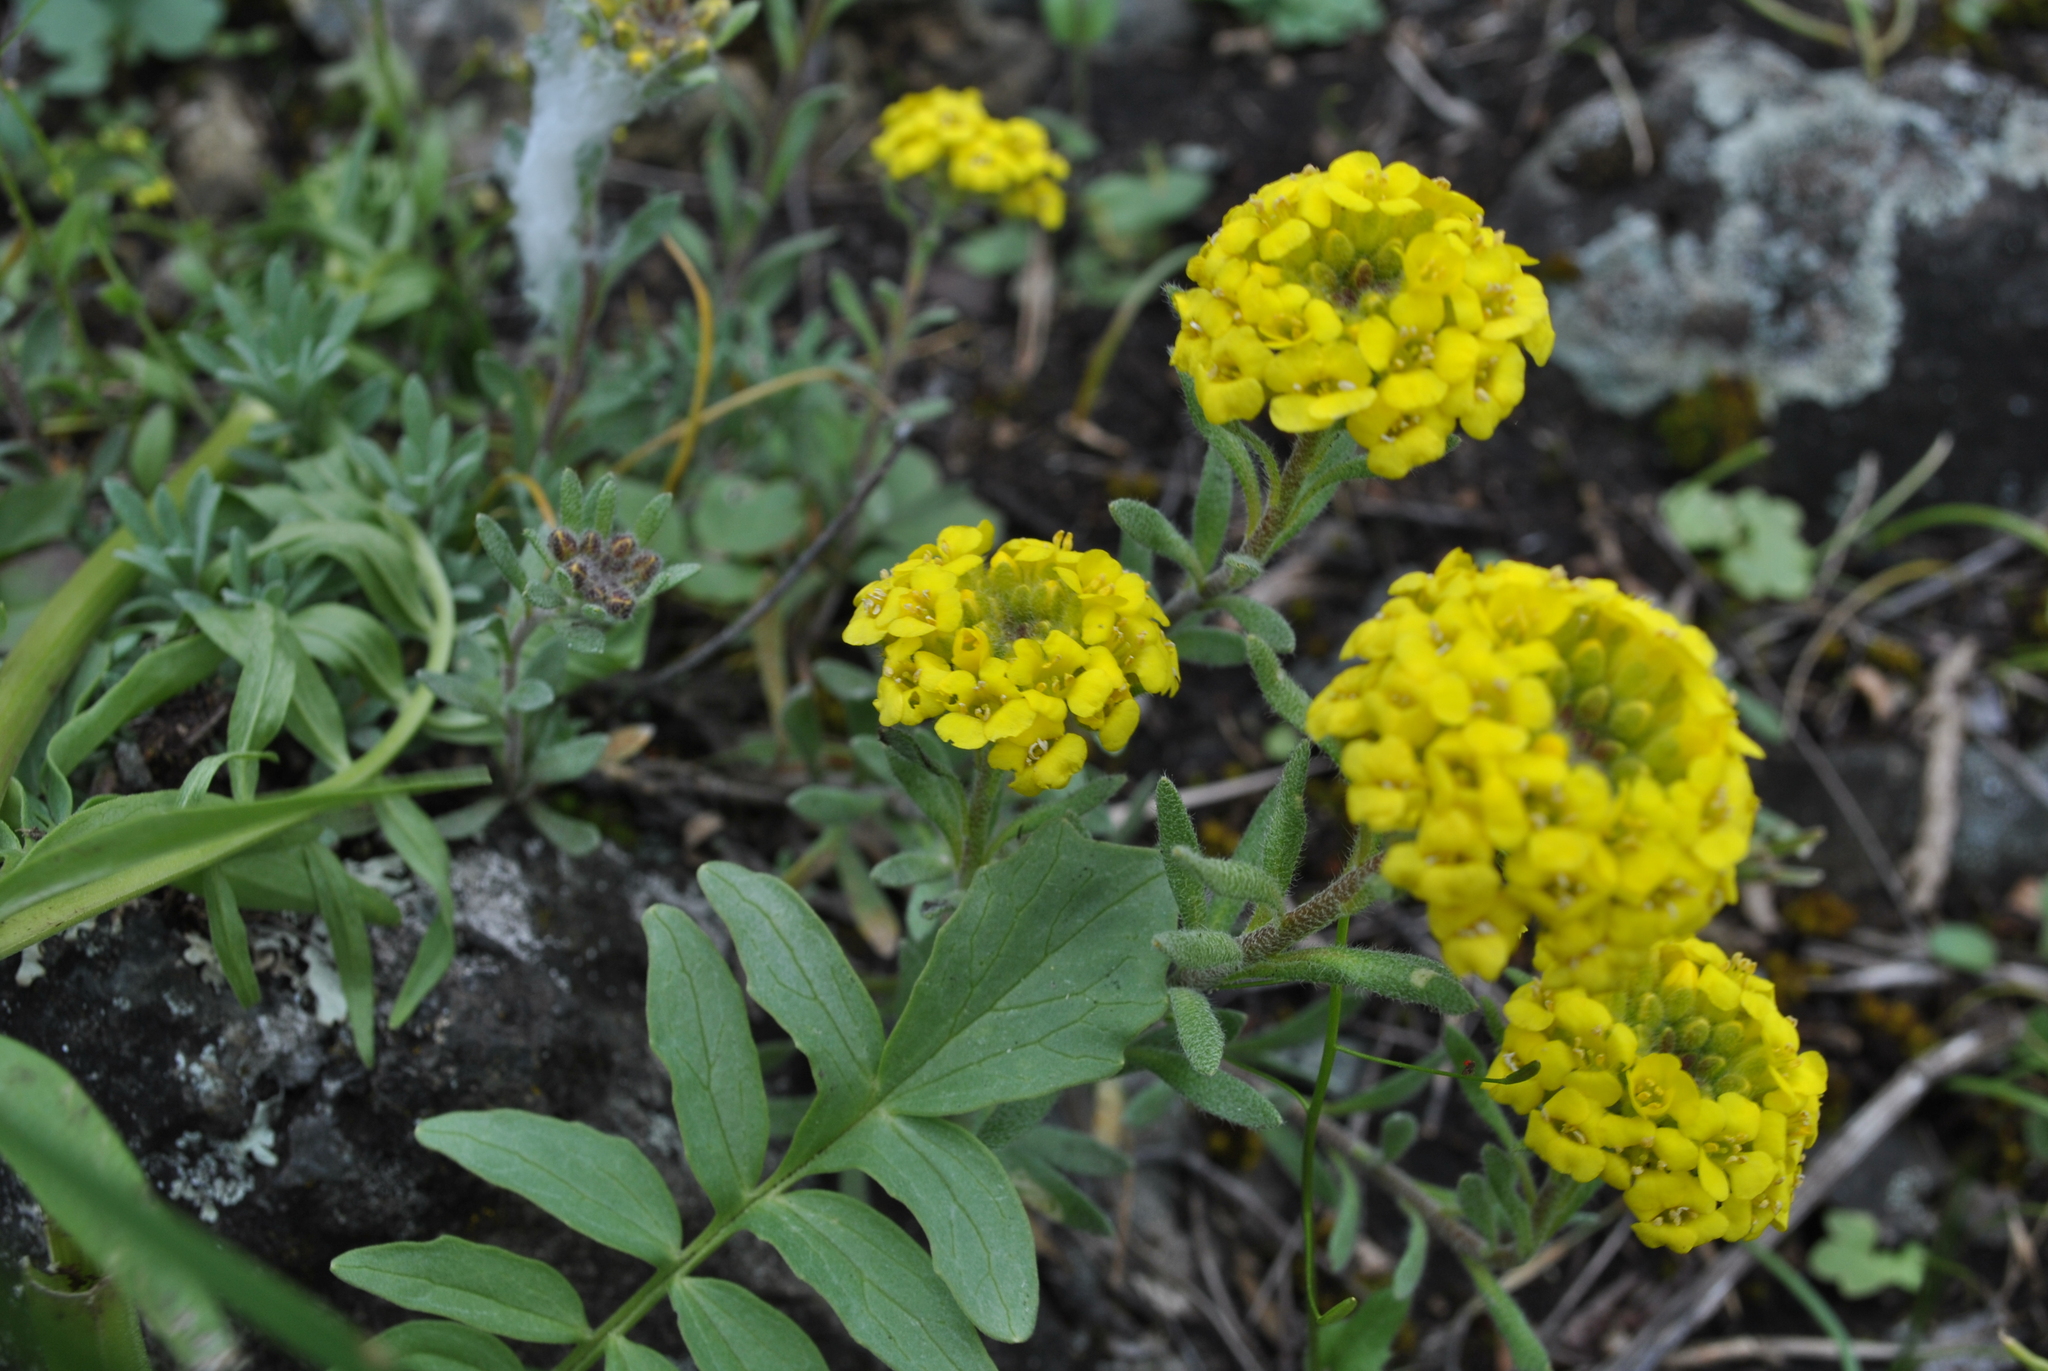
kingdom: Plantae
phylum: Tracheophyta
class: Magnoliopsida
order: Brassicales
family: Brassicaceae
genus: Alyssum
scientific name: Alyssum lenense
